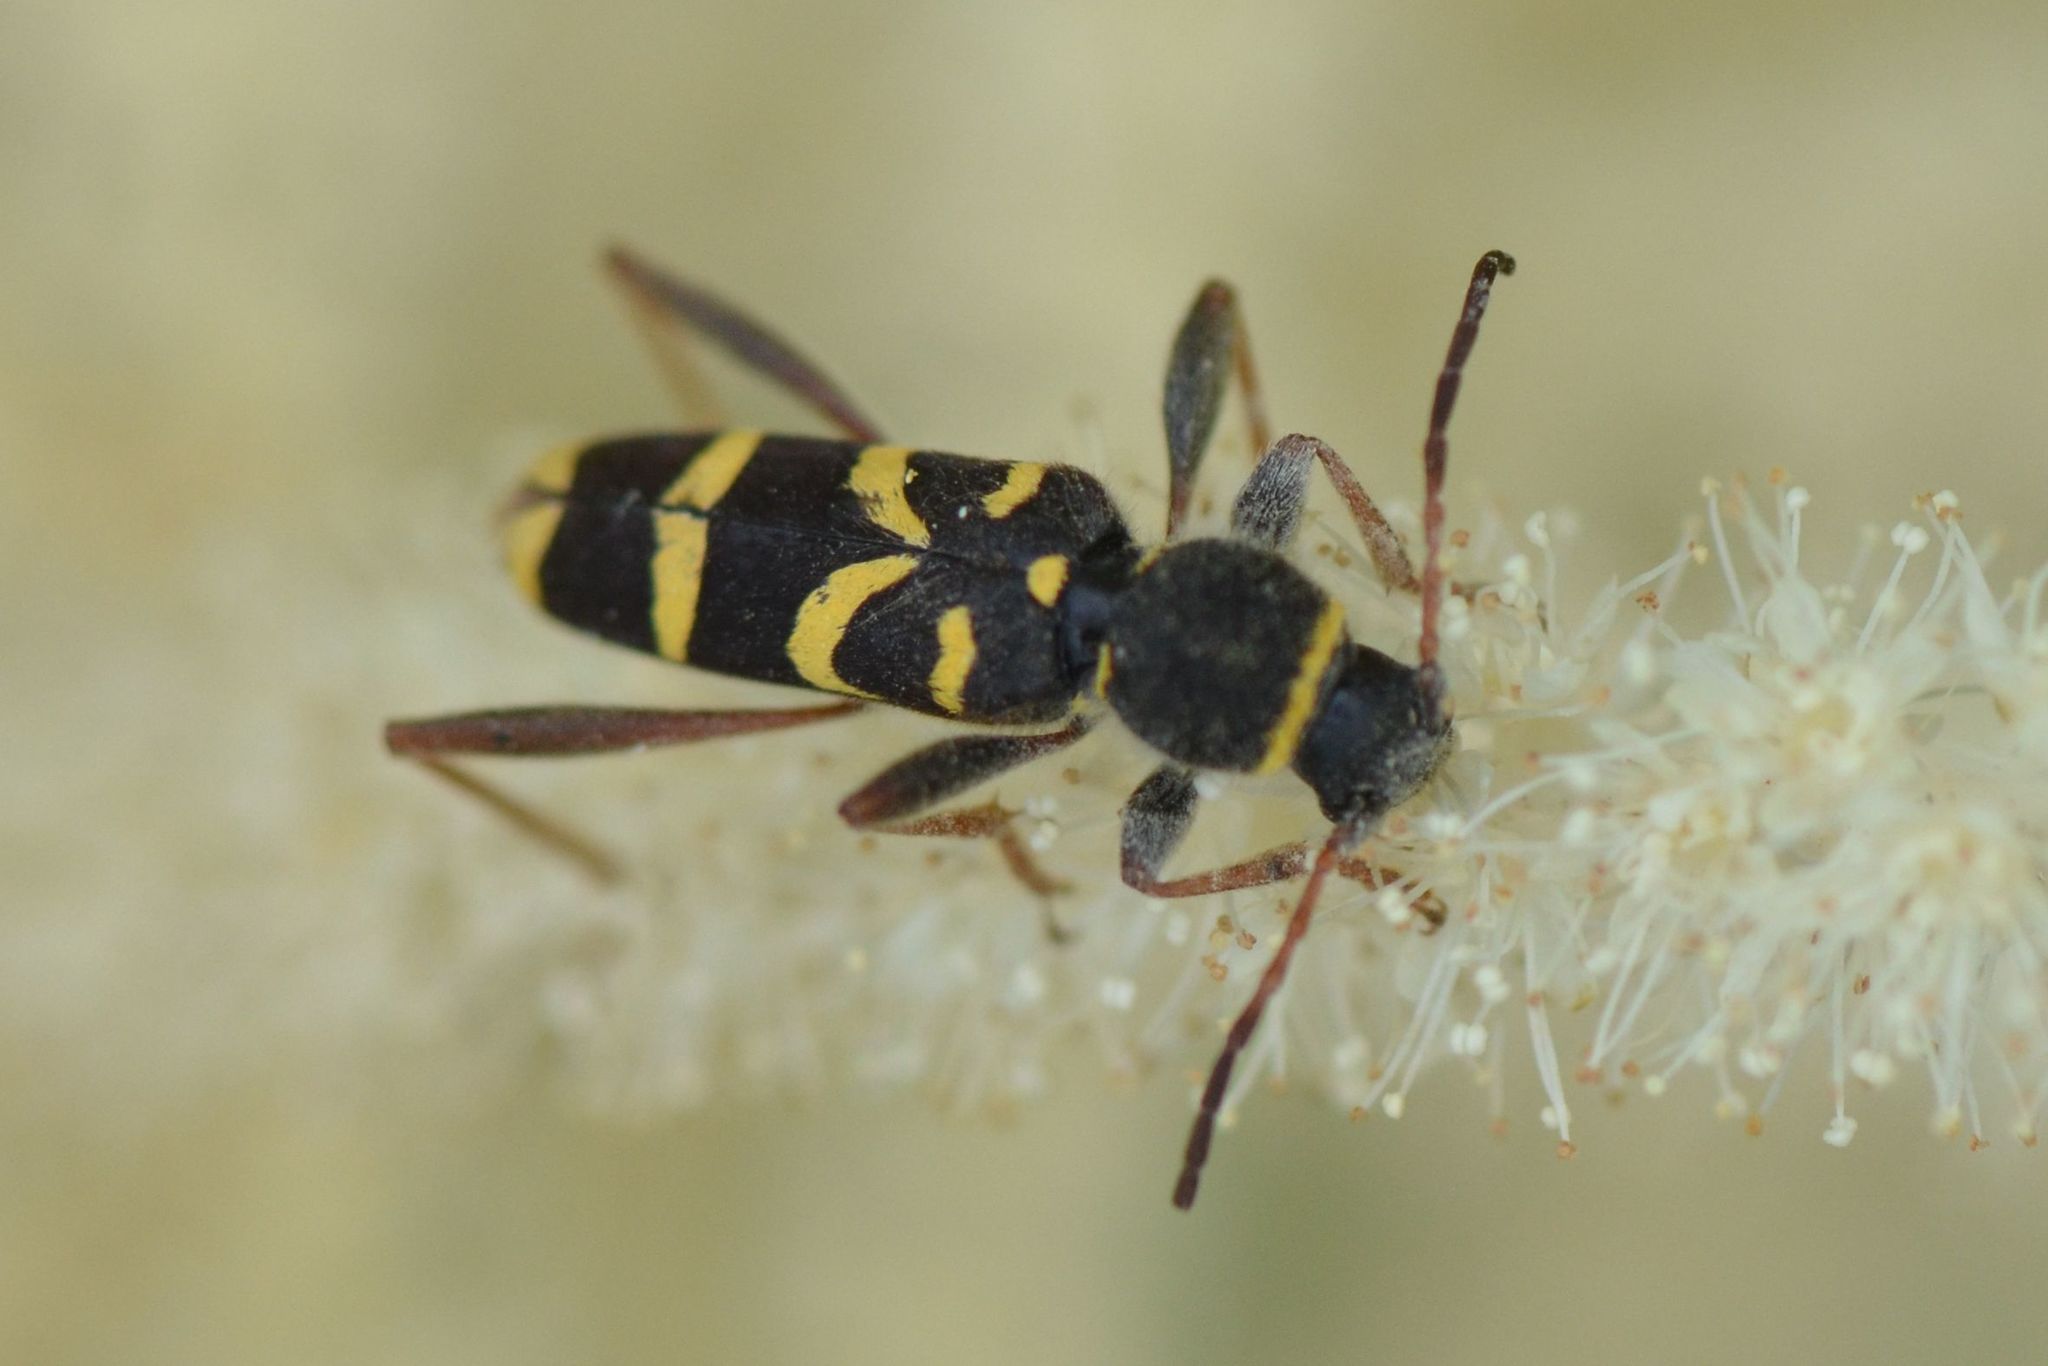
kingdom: Animalia
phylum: Arthropoda
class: Insecta
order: Coleoptera
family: Cerambycidae
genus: Clytus
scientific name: Clytus arietis
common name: Wasp beetle
